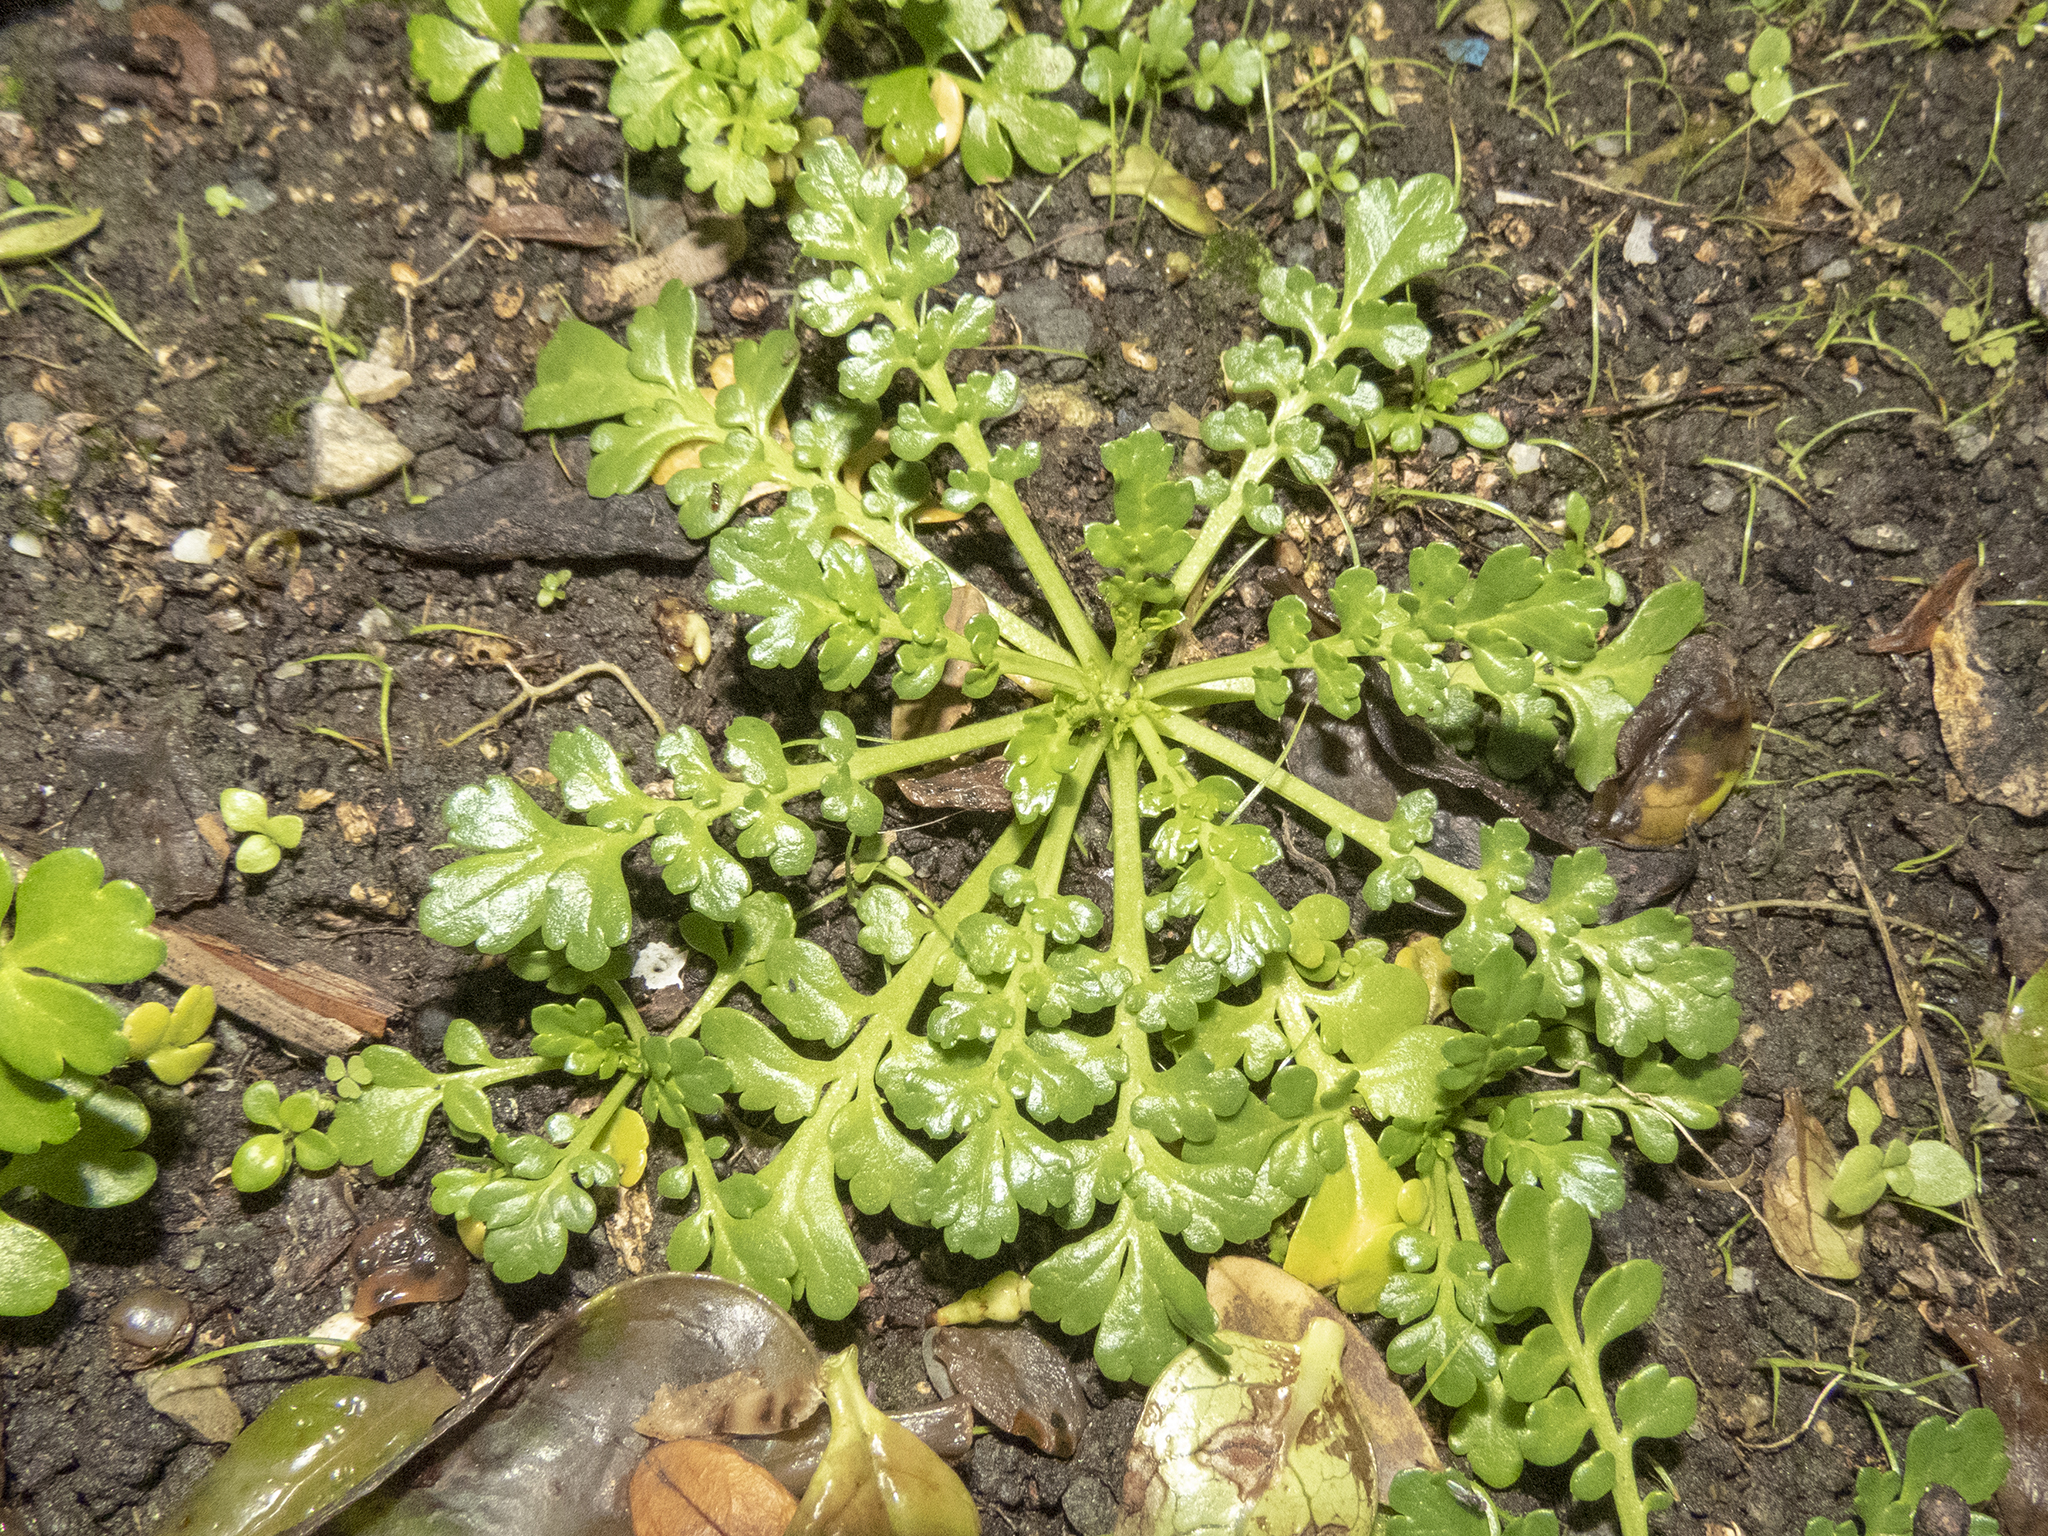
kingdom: Plantae
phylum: Tracheophyta
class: Magnoliopsida
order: Brassicales
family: Brassicaceae
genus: Lepidium
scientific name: Lepidium flexicaule
